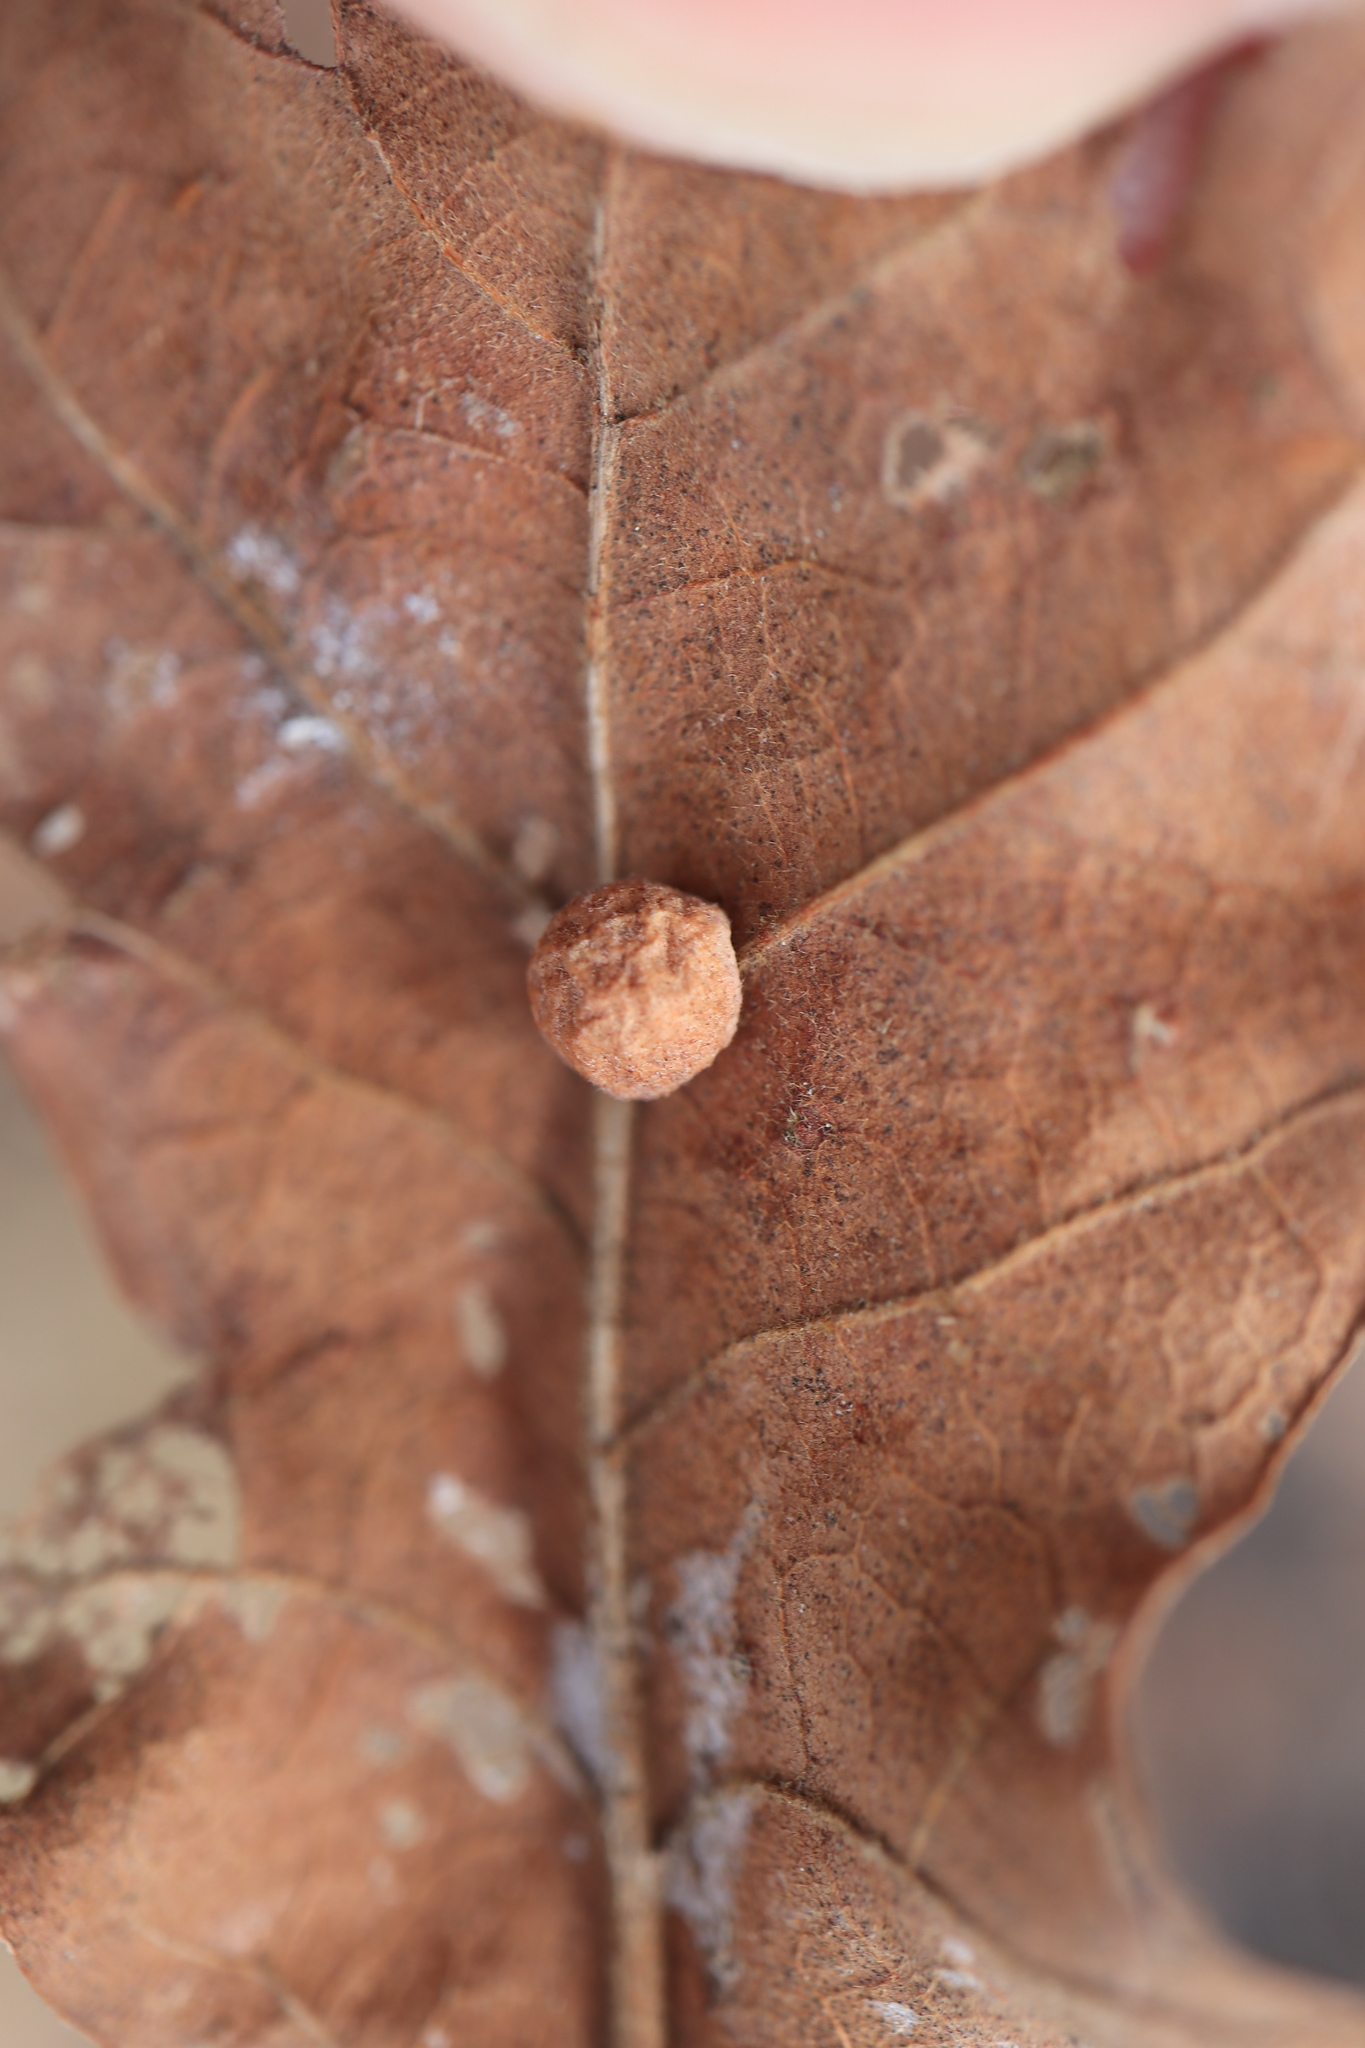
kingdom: Animalia
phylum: Arthropoda
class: Insecta
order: Hymenoptera
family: Cynipidae
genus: Atrusca
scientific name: Atrusca
